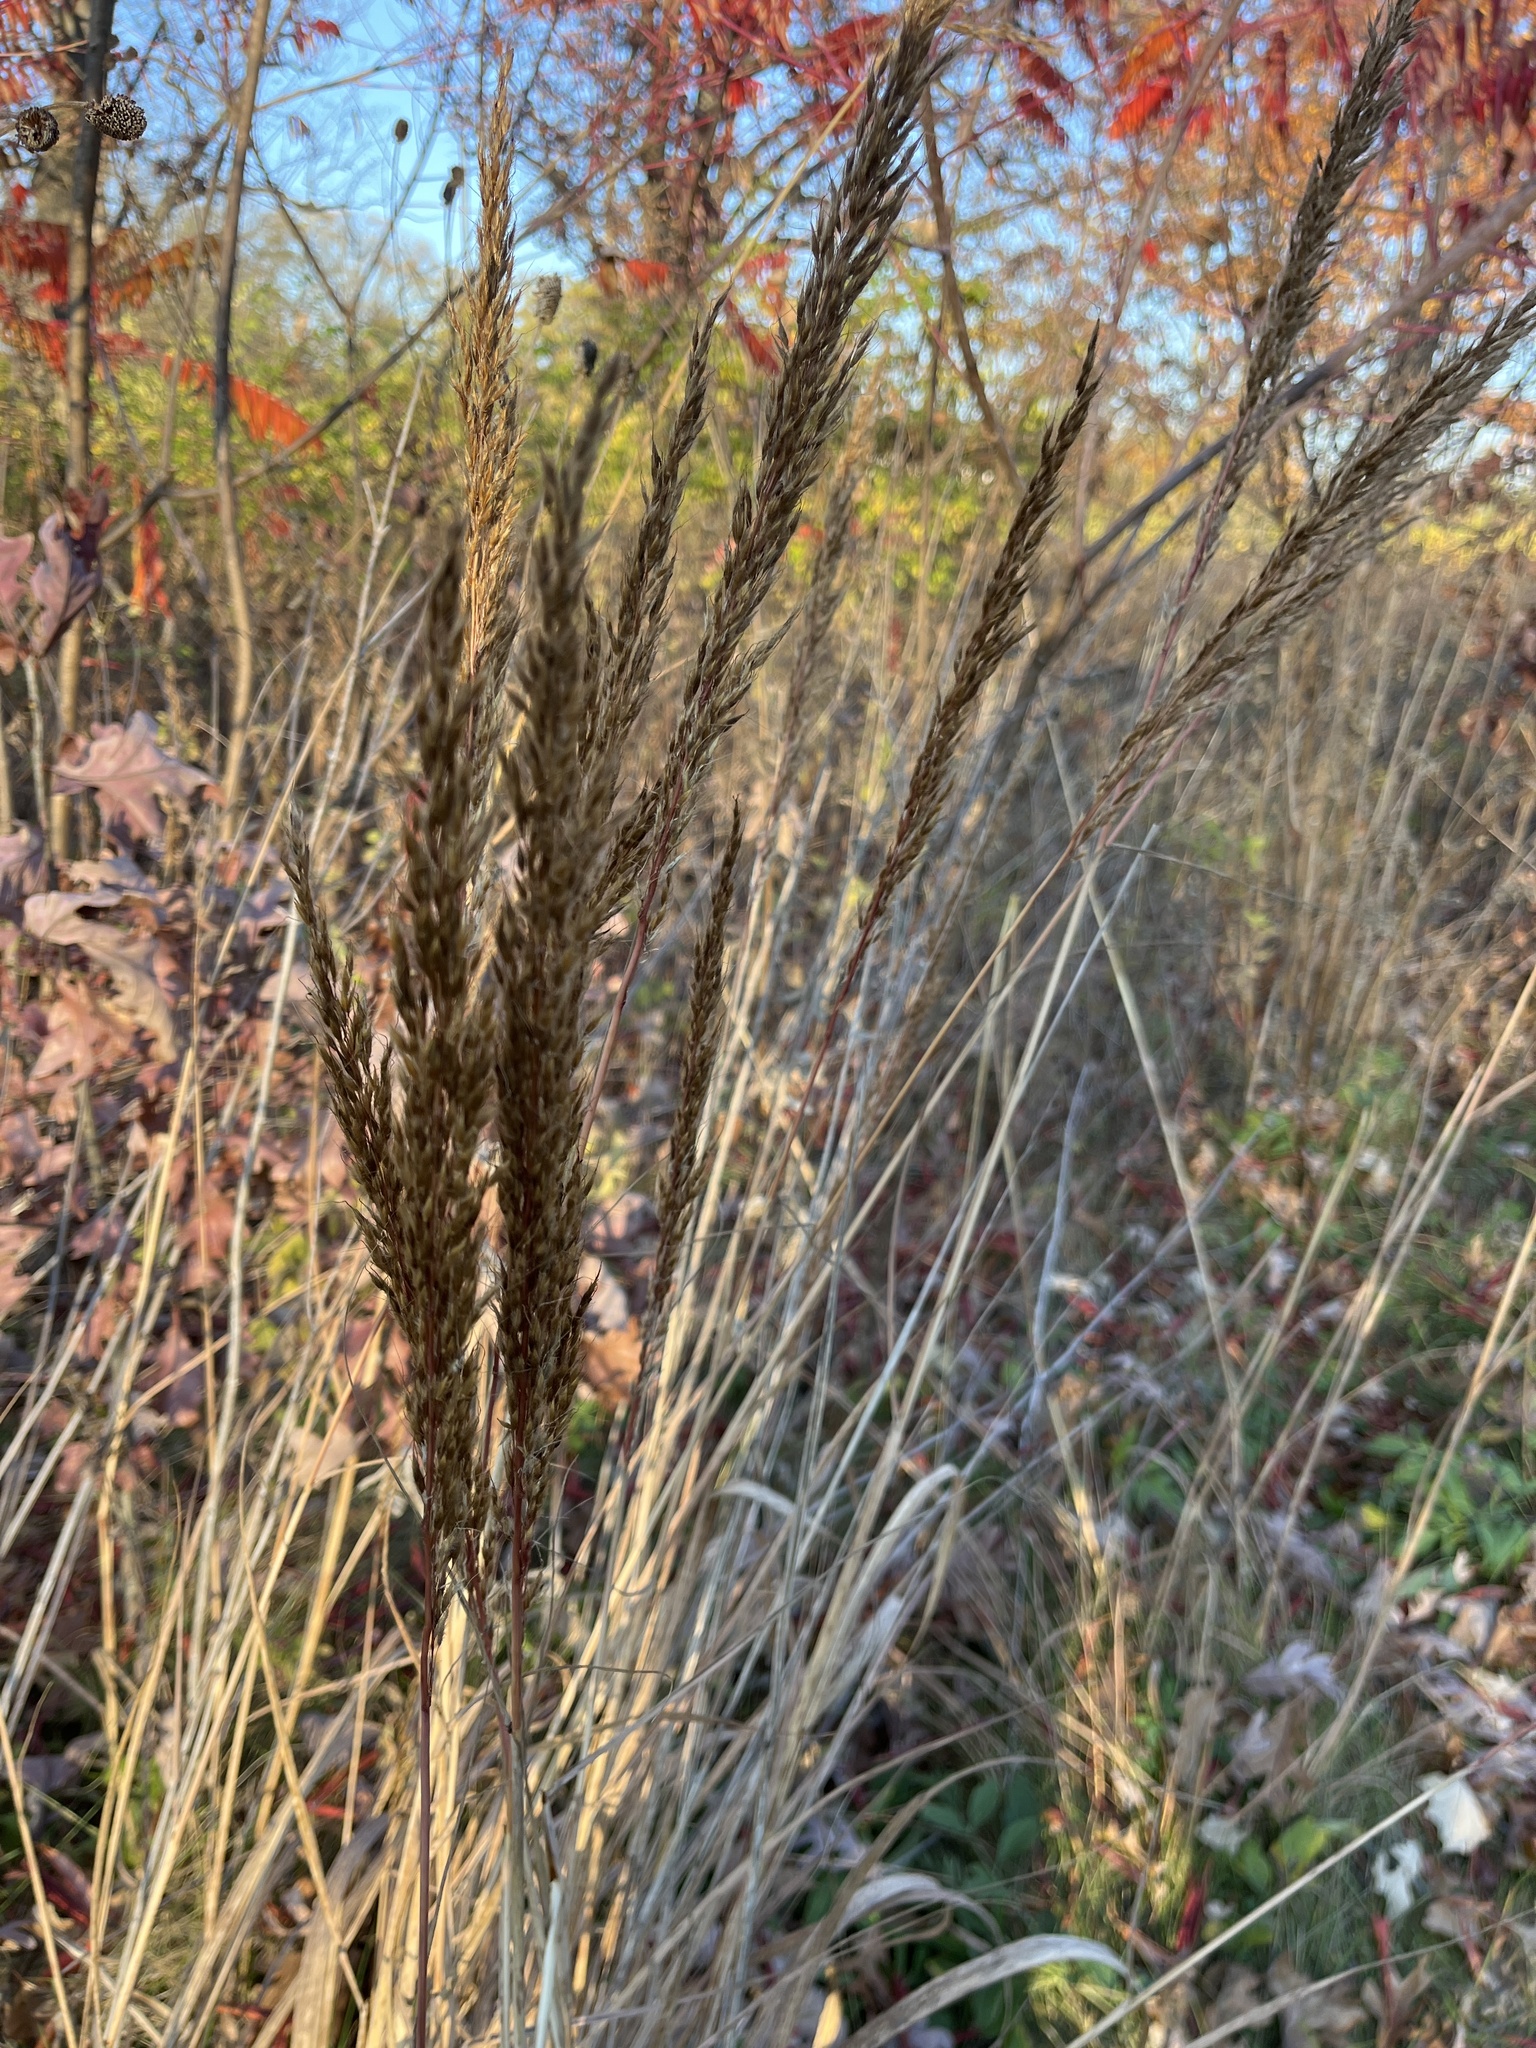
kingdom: Plantae
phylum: Tracheophyta
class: Liliopsida
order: Poales
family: Poaceae
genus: Sorghastrum
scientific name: Sorghastrum nutans
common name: Indian grass
